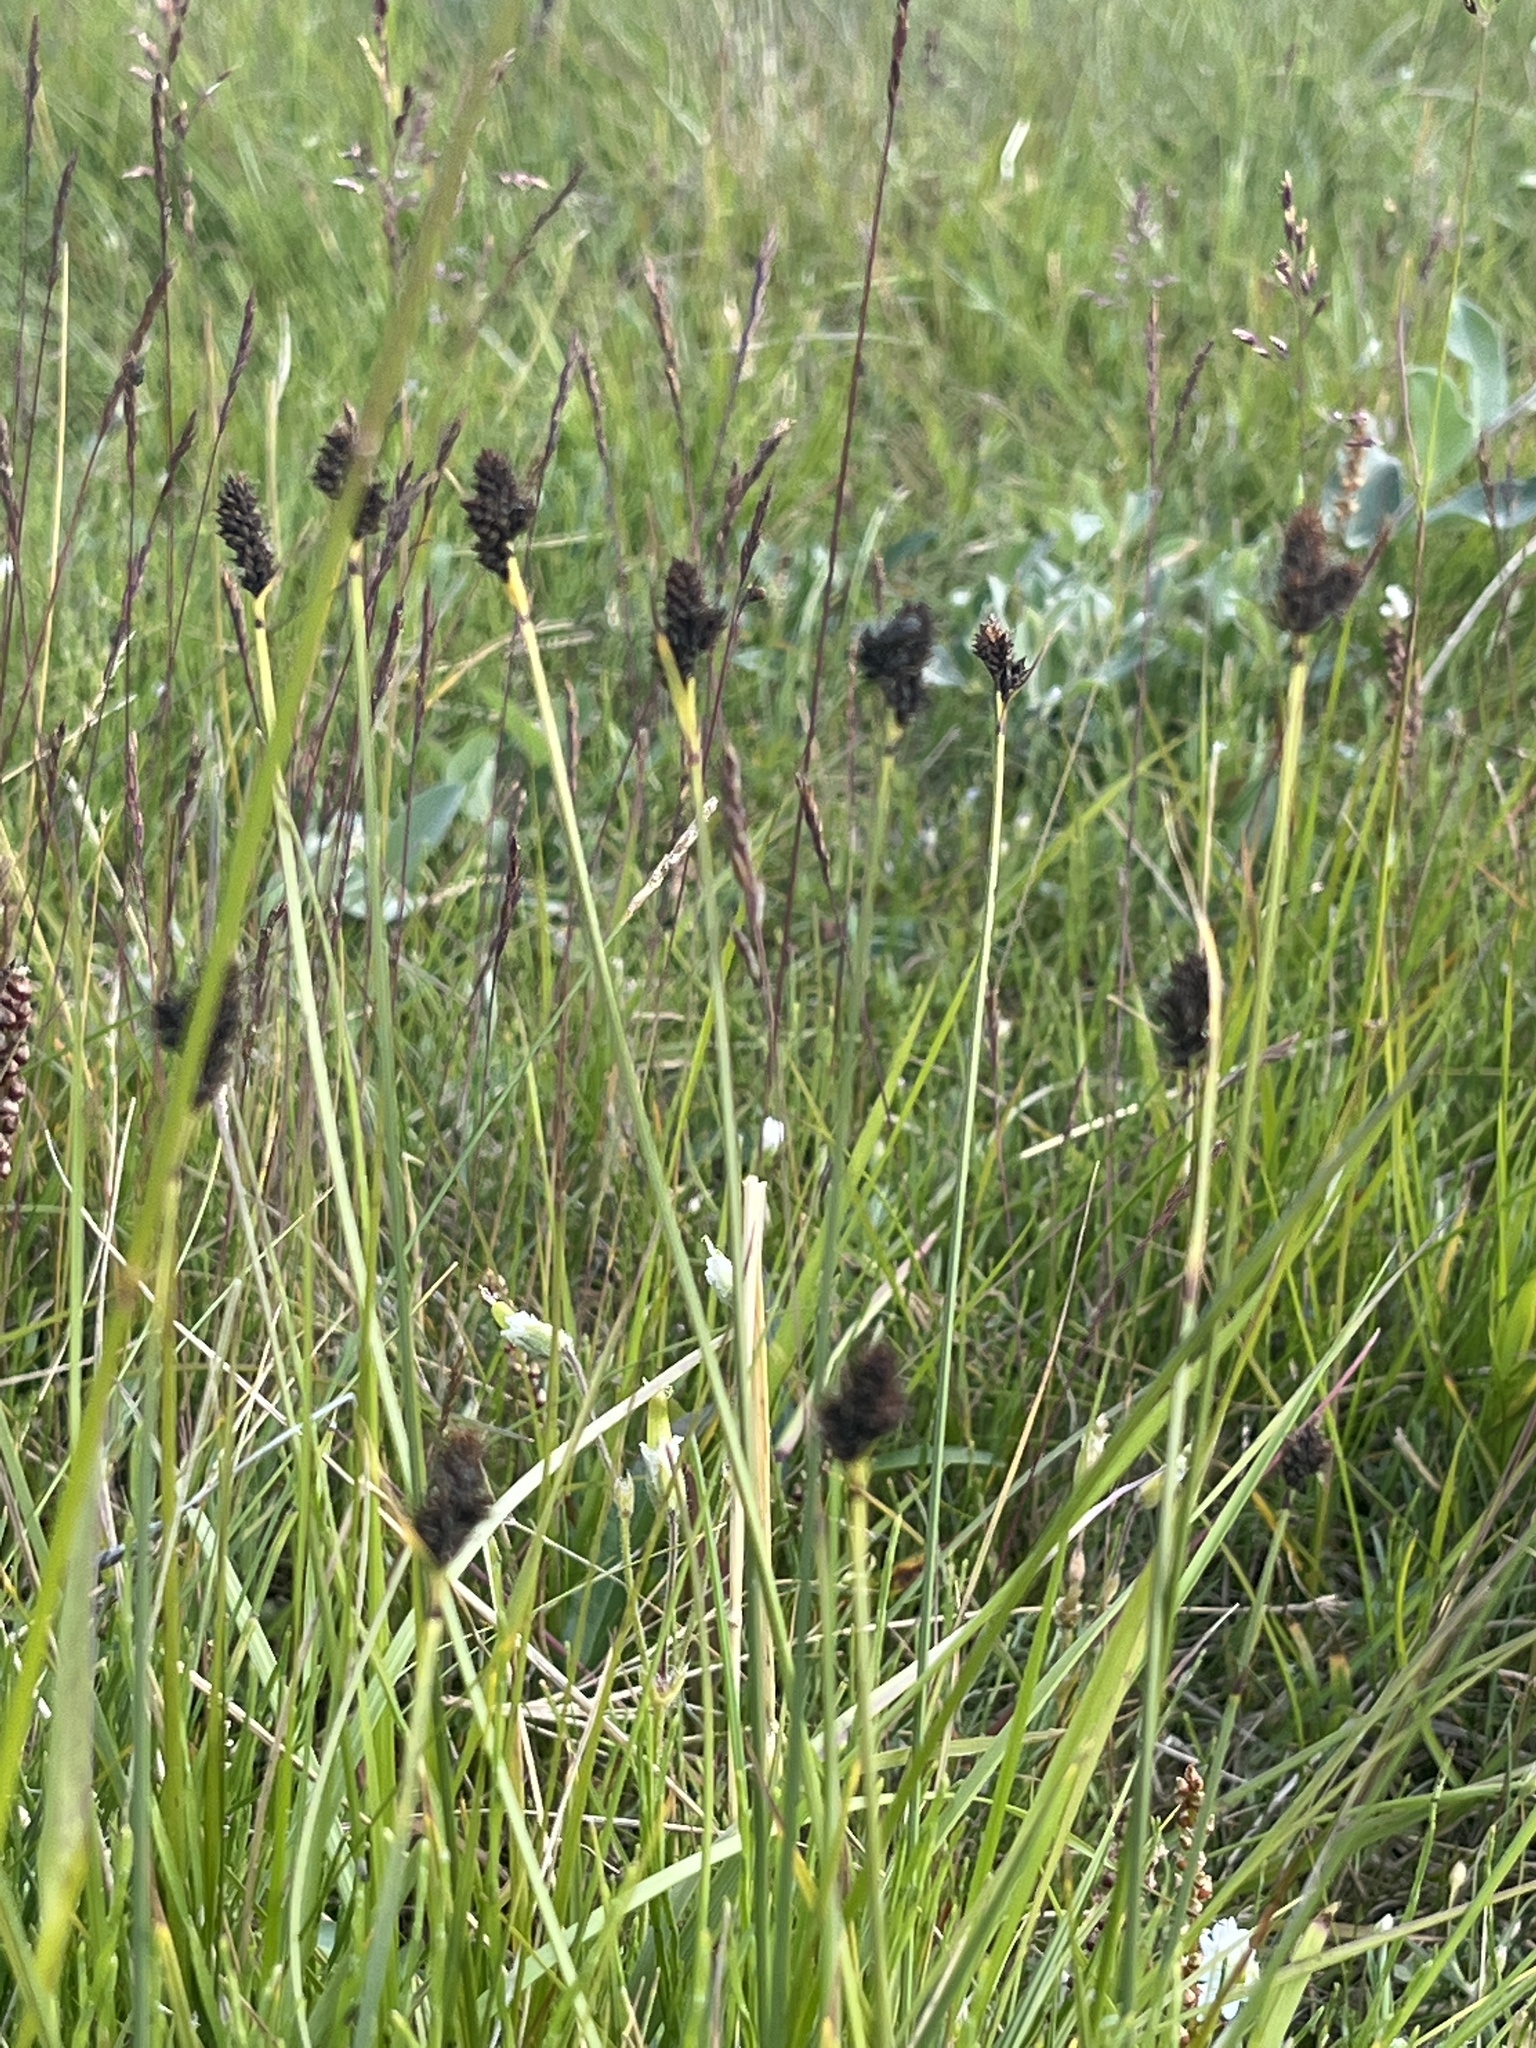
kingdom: Plantae
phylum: Tracheophyta
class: Liliopsida
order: Poales
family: Cyperaceae
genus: Carex
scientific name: Carex norvegica
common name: Close-headed alpine-sedge
